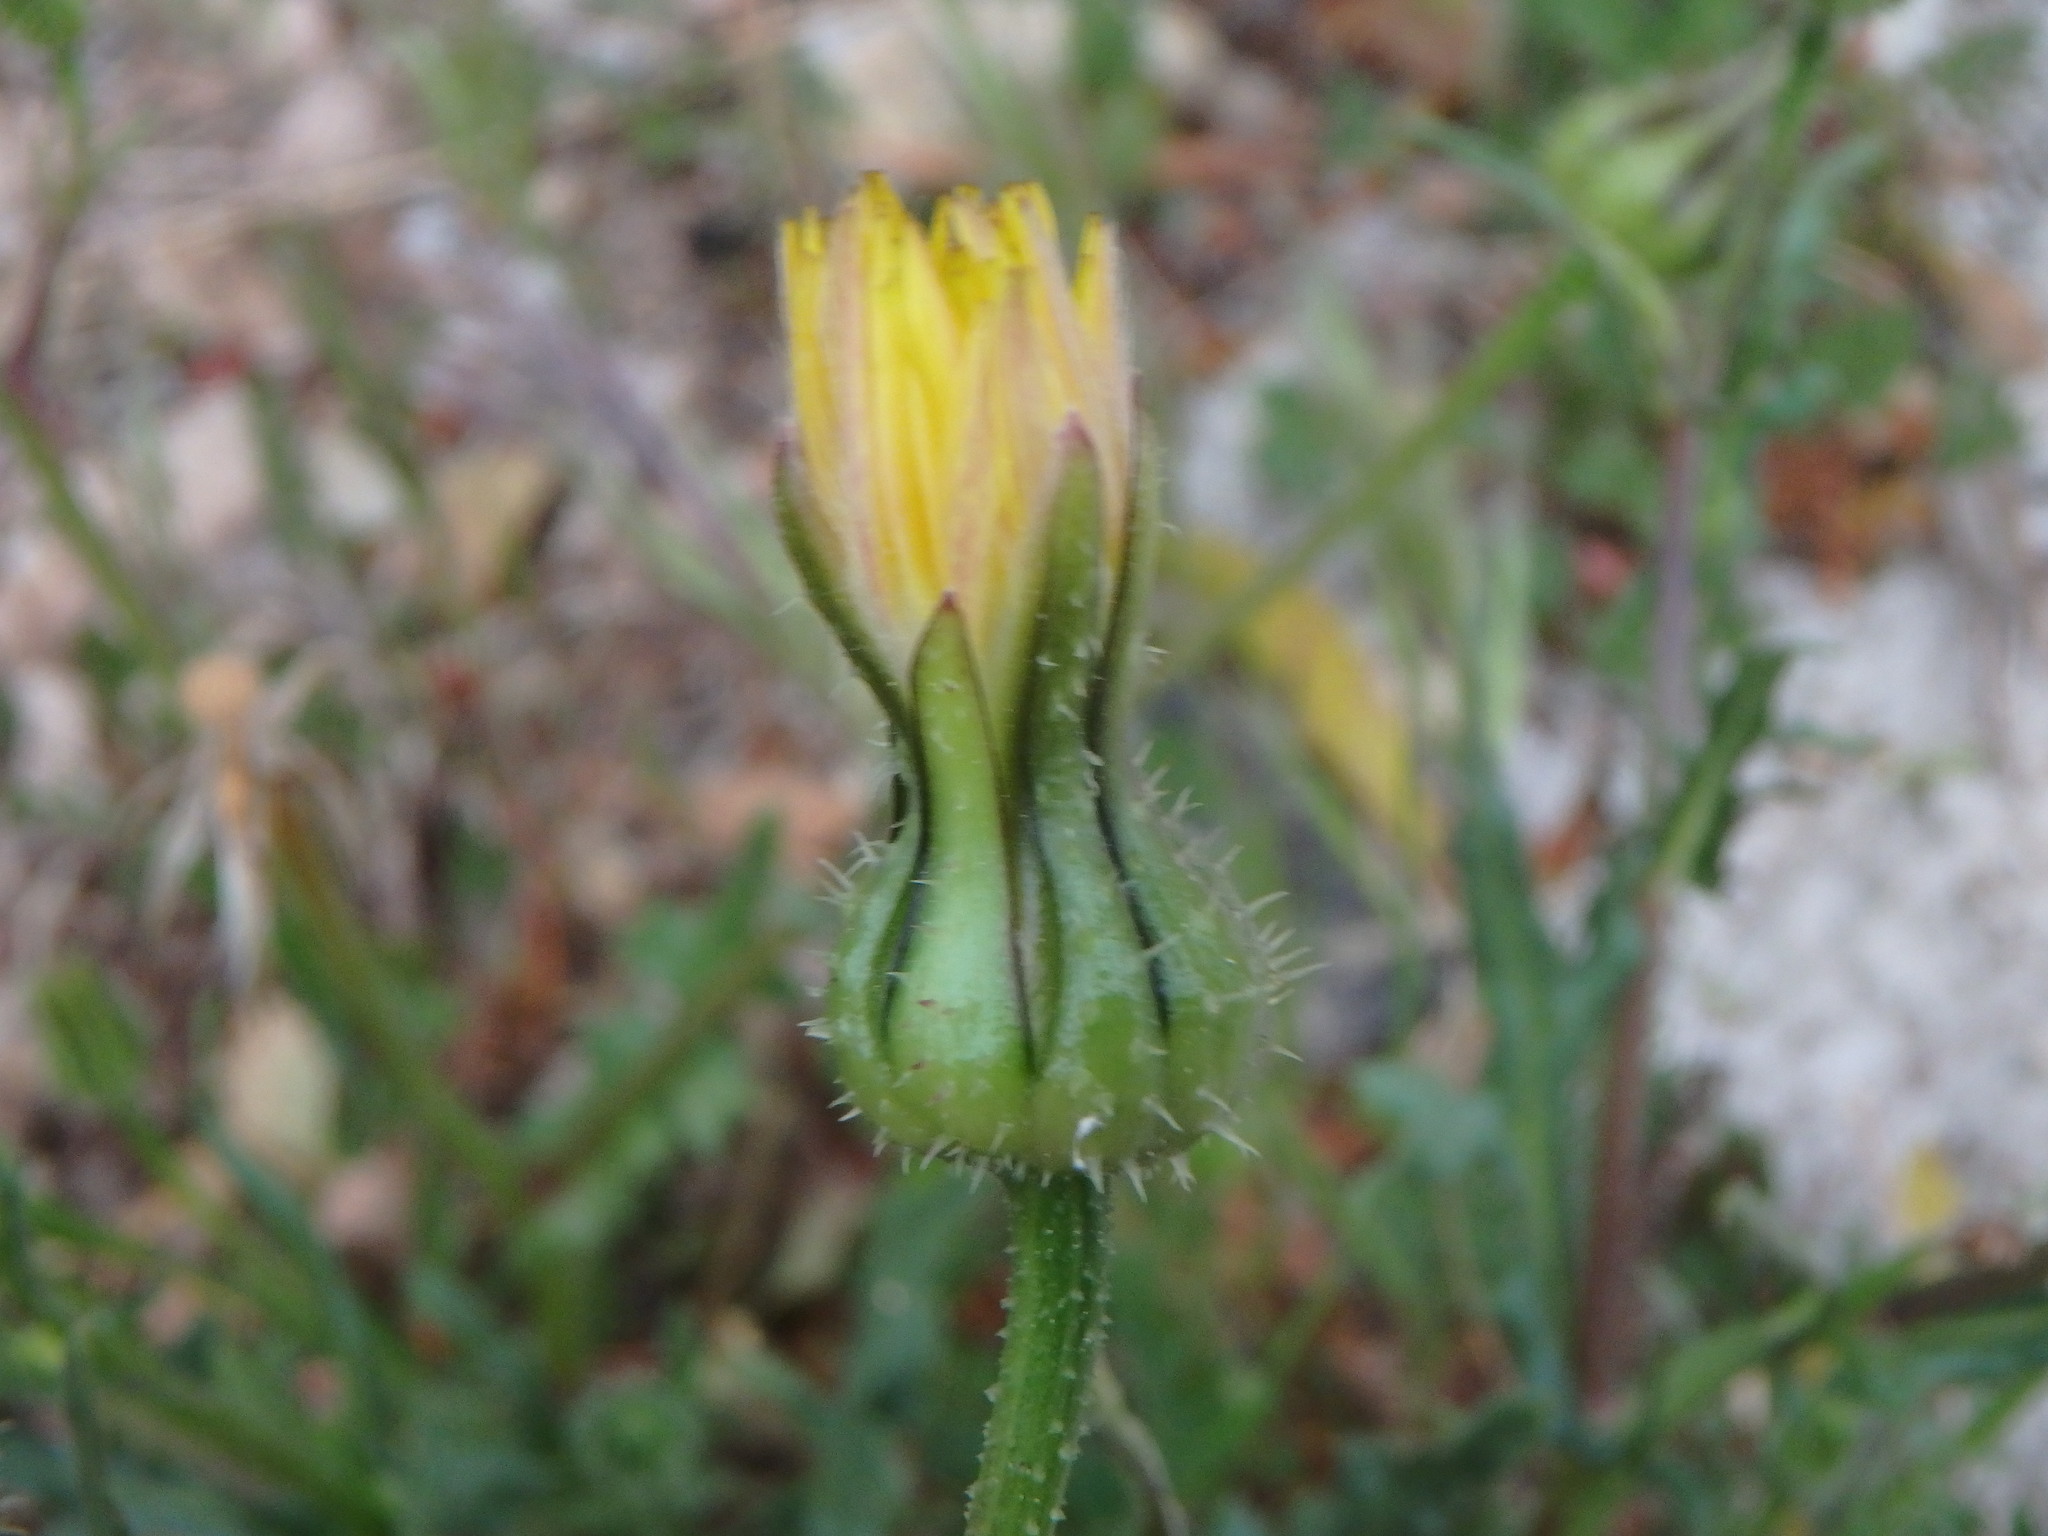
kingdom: Plantae
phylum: Tracheophyta
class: Magnoliopsida
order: Asterales
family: Asteraceae
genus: Urospermum
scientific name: Urospermum picroides
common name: False hawkbit
